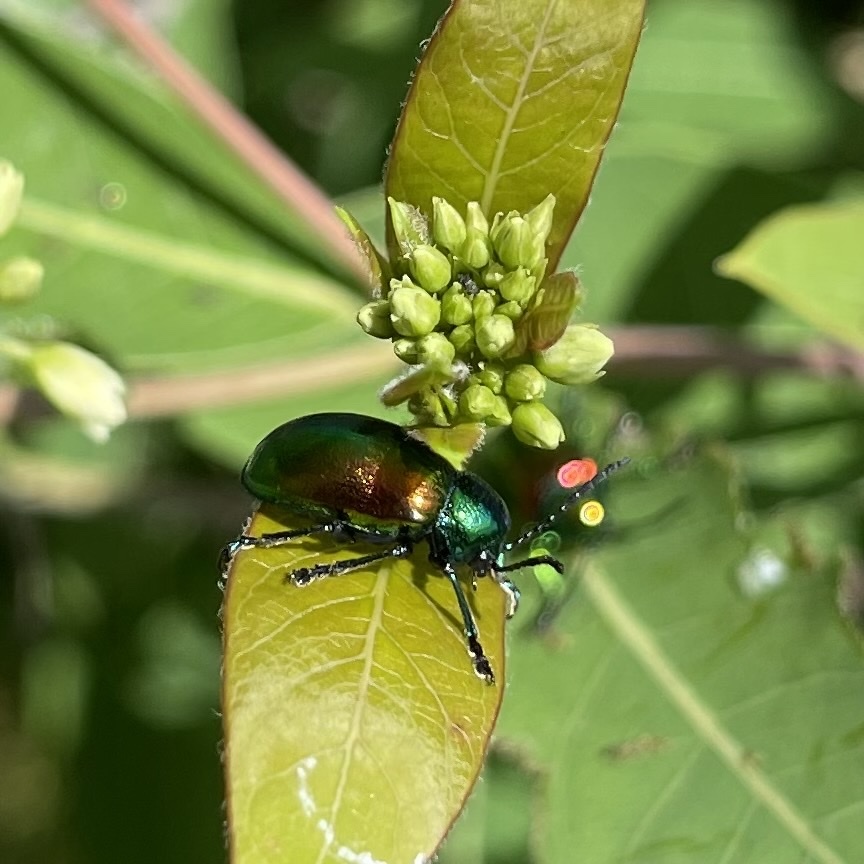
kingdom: Animalia
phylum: Arthropoda
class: Insecta
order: Coleoptera
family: Chrysomelidae
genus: Chrysochus
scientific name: Chrysochus auratus
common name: Dogbane leaf beetle
